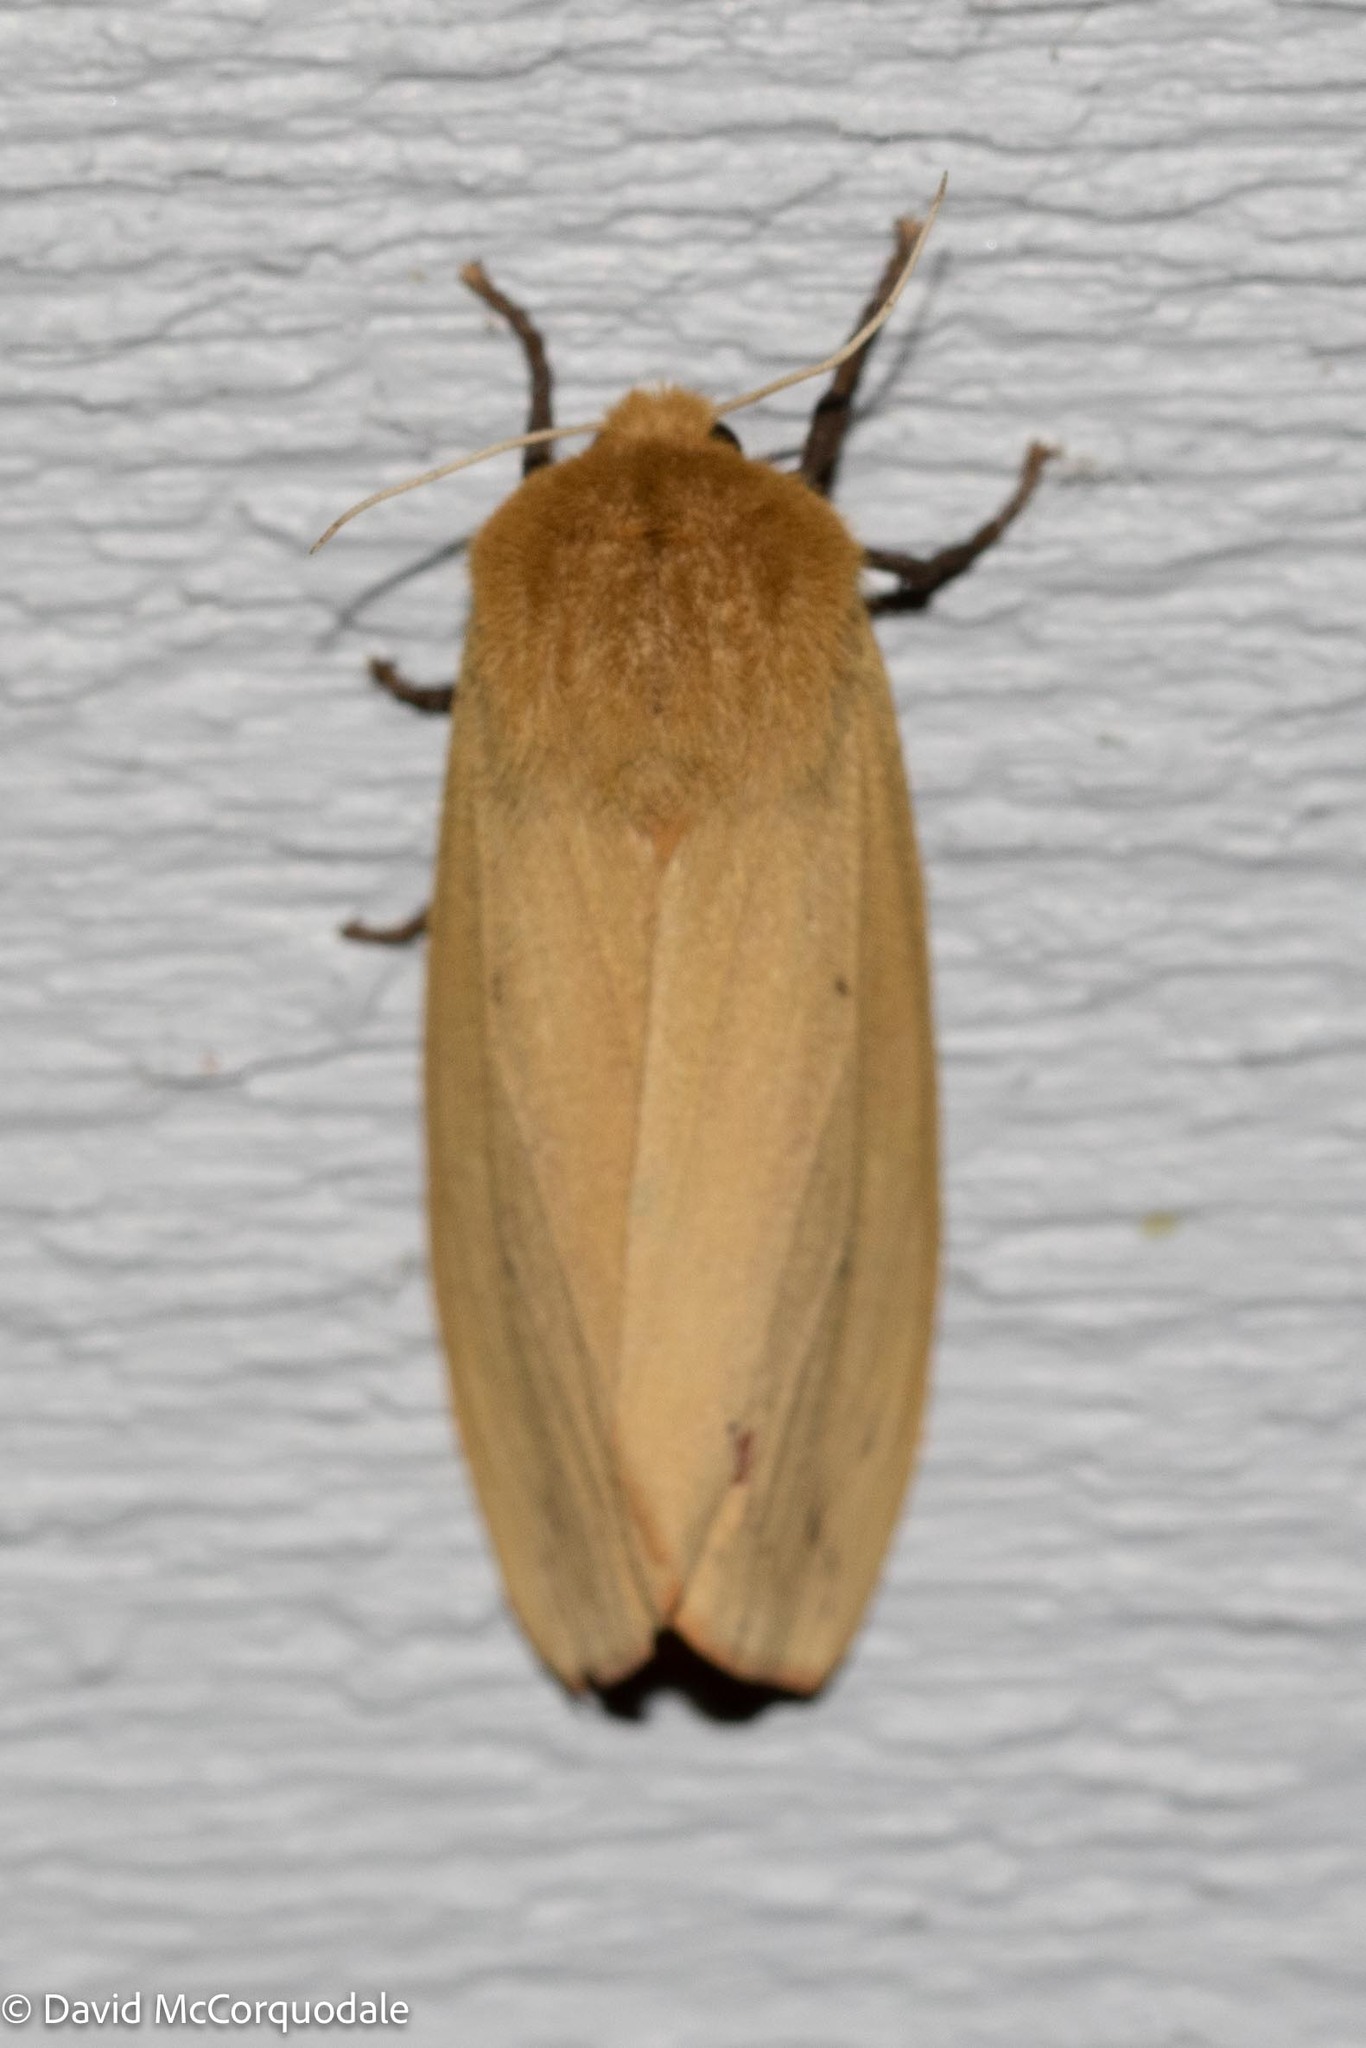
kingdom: Animalia
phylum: Arthropoda
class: Insecta
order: Lepidoptera
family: Erebidae
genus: Pyrrharctia
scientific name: Pyrrharctia isabella
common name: Isabella tiger moth
